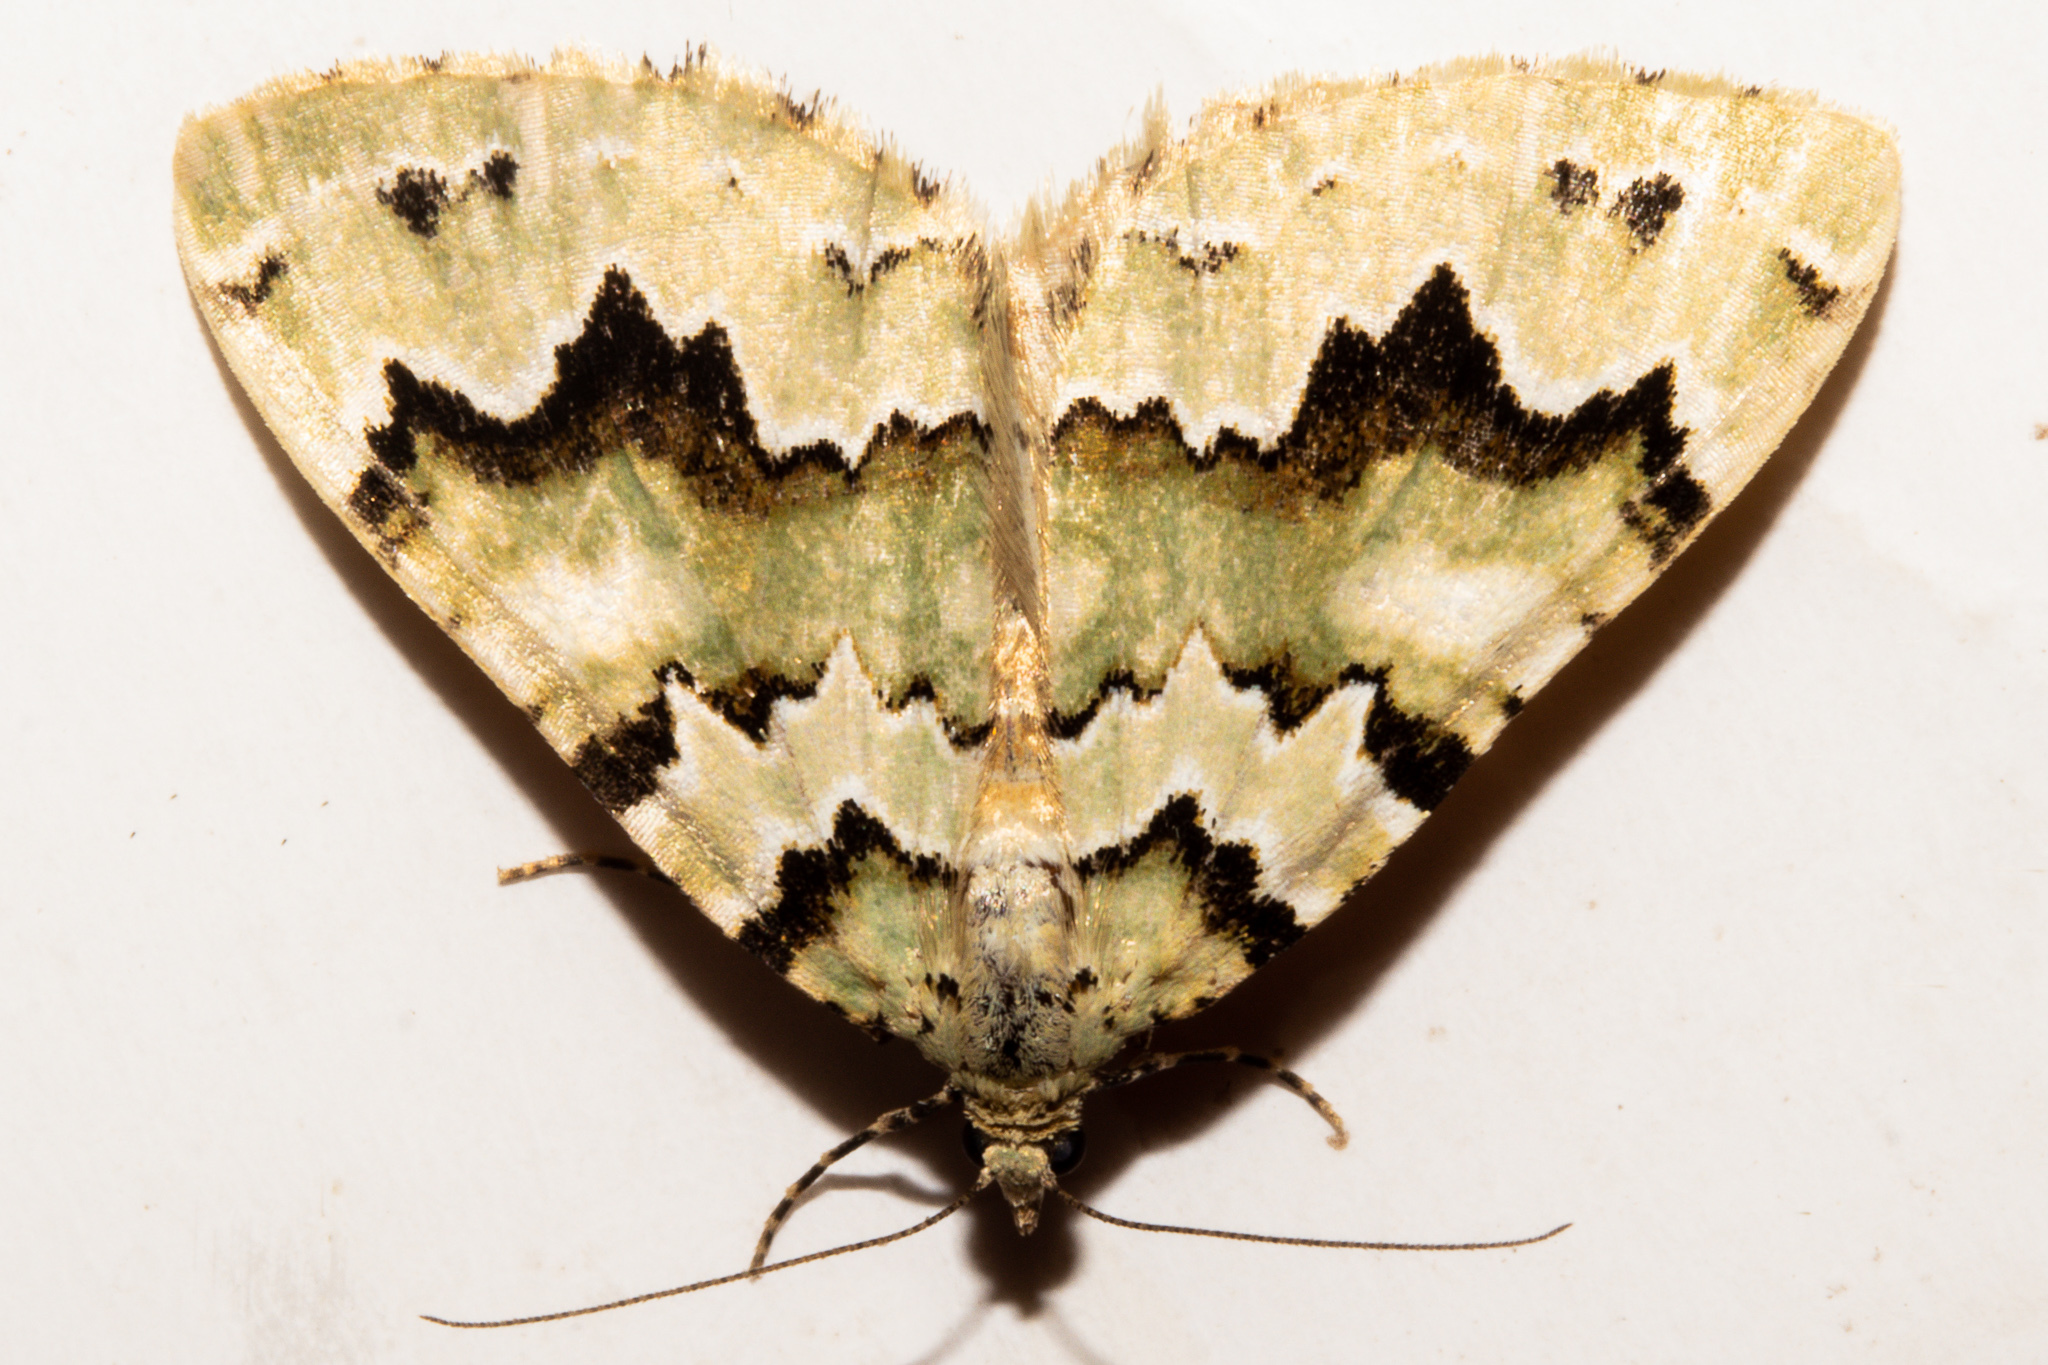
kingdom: Animalia
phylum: Arthropoda
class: Insecta
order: Lepidoptera
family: Geometridae
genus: Asaphodes
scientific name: Asaphodes adonis
